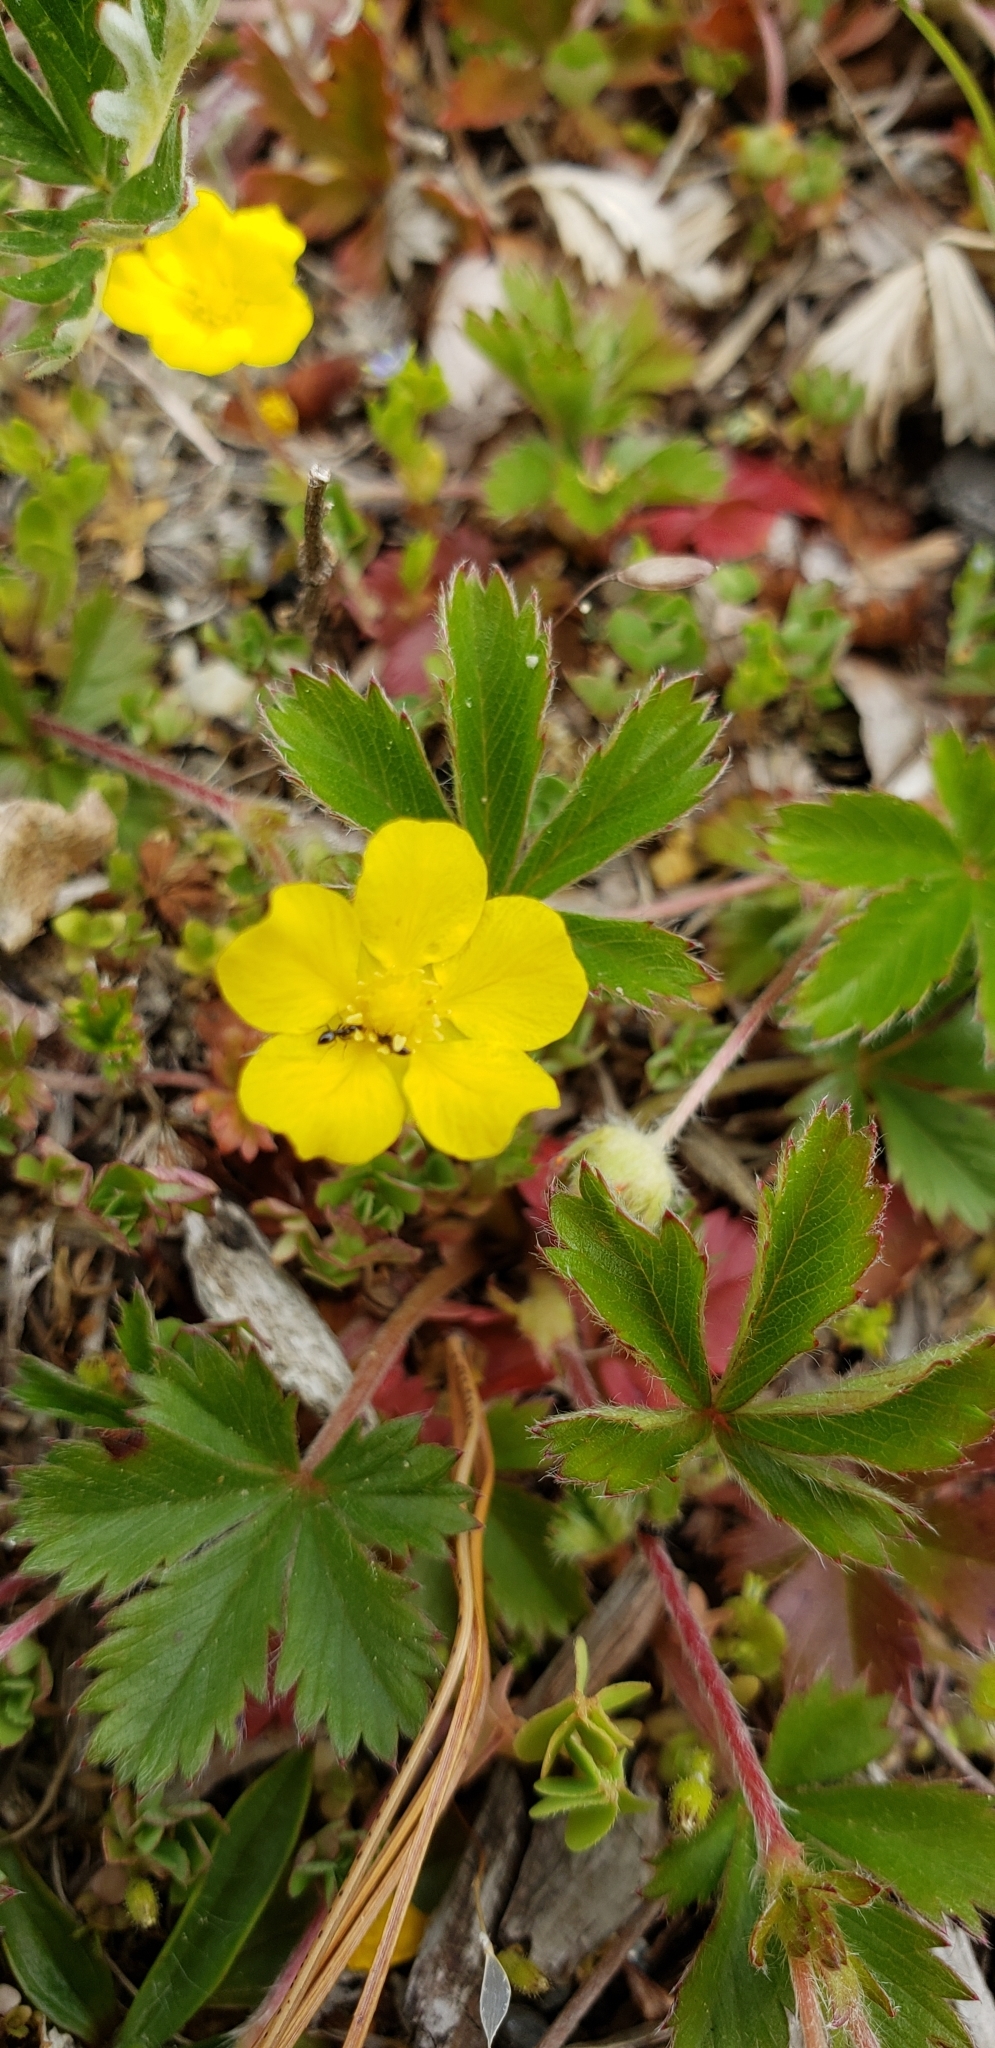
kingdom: Plantae
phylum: Tracheophyta
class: Magnoliopsida
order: Rosales
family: Rosaceae
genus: Potentilla
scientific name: Potentilla simplex
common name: Old field cinquefoil
